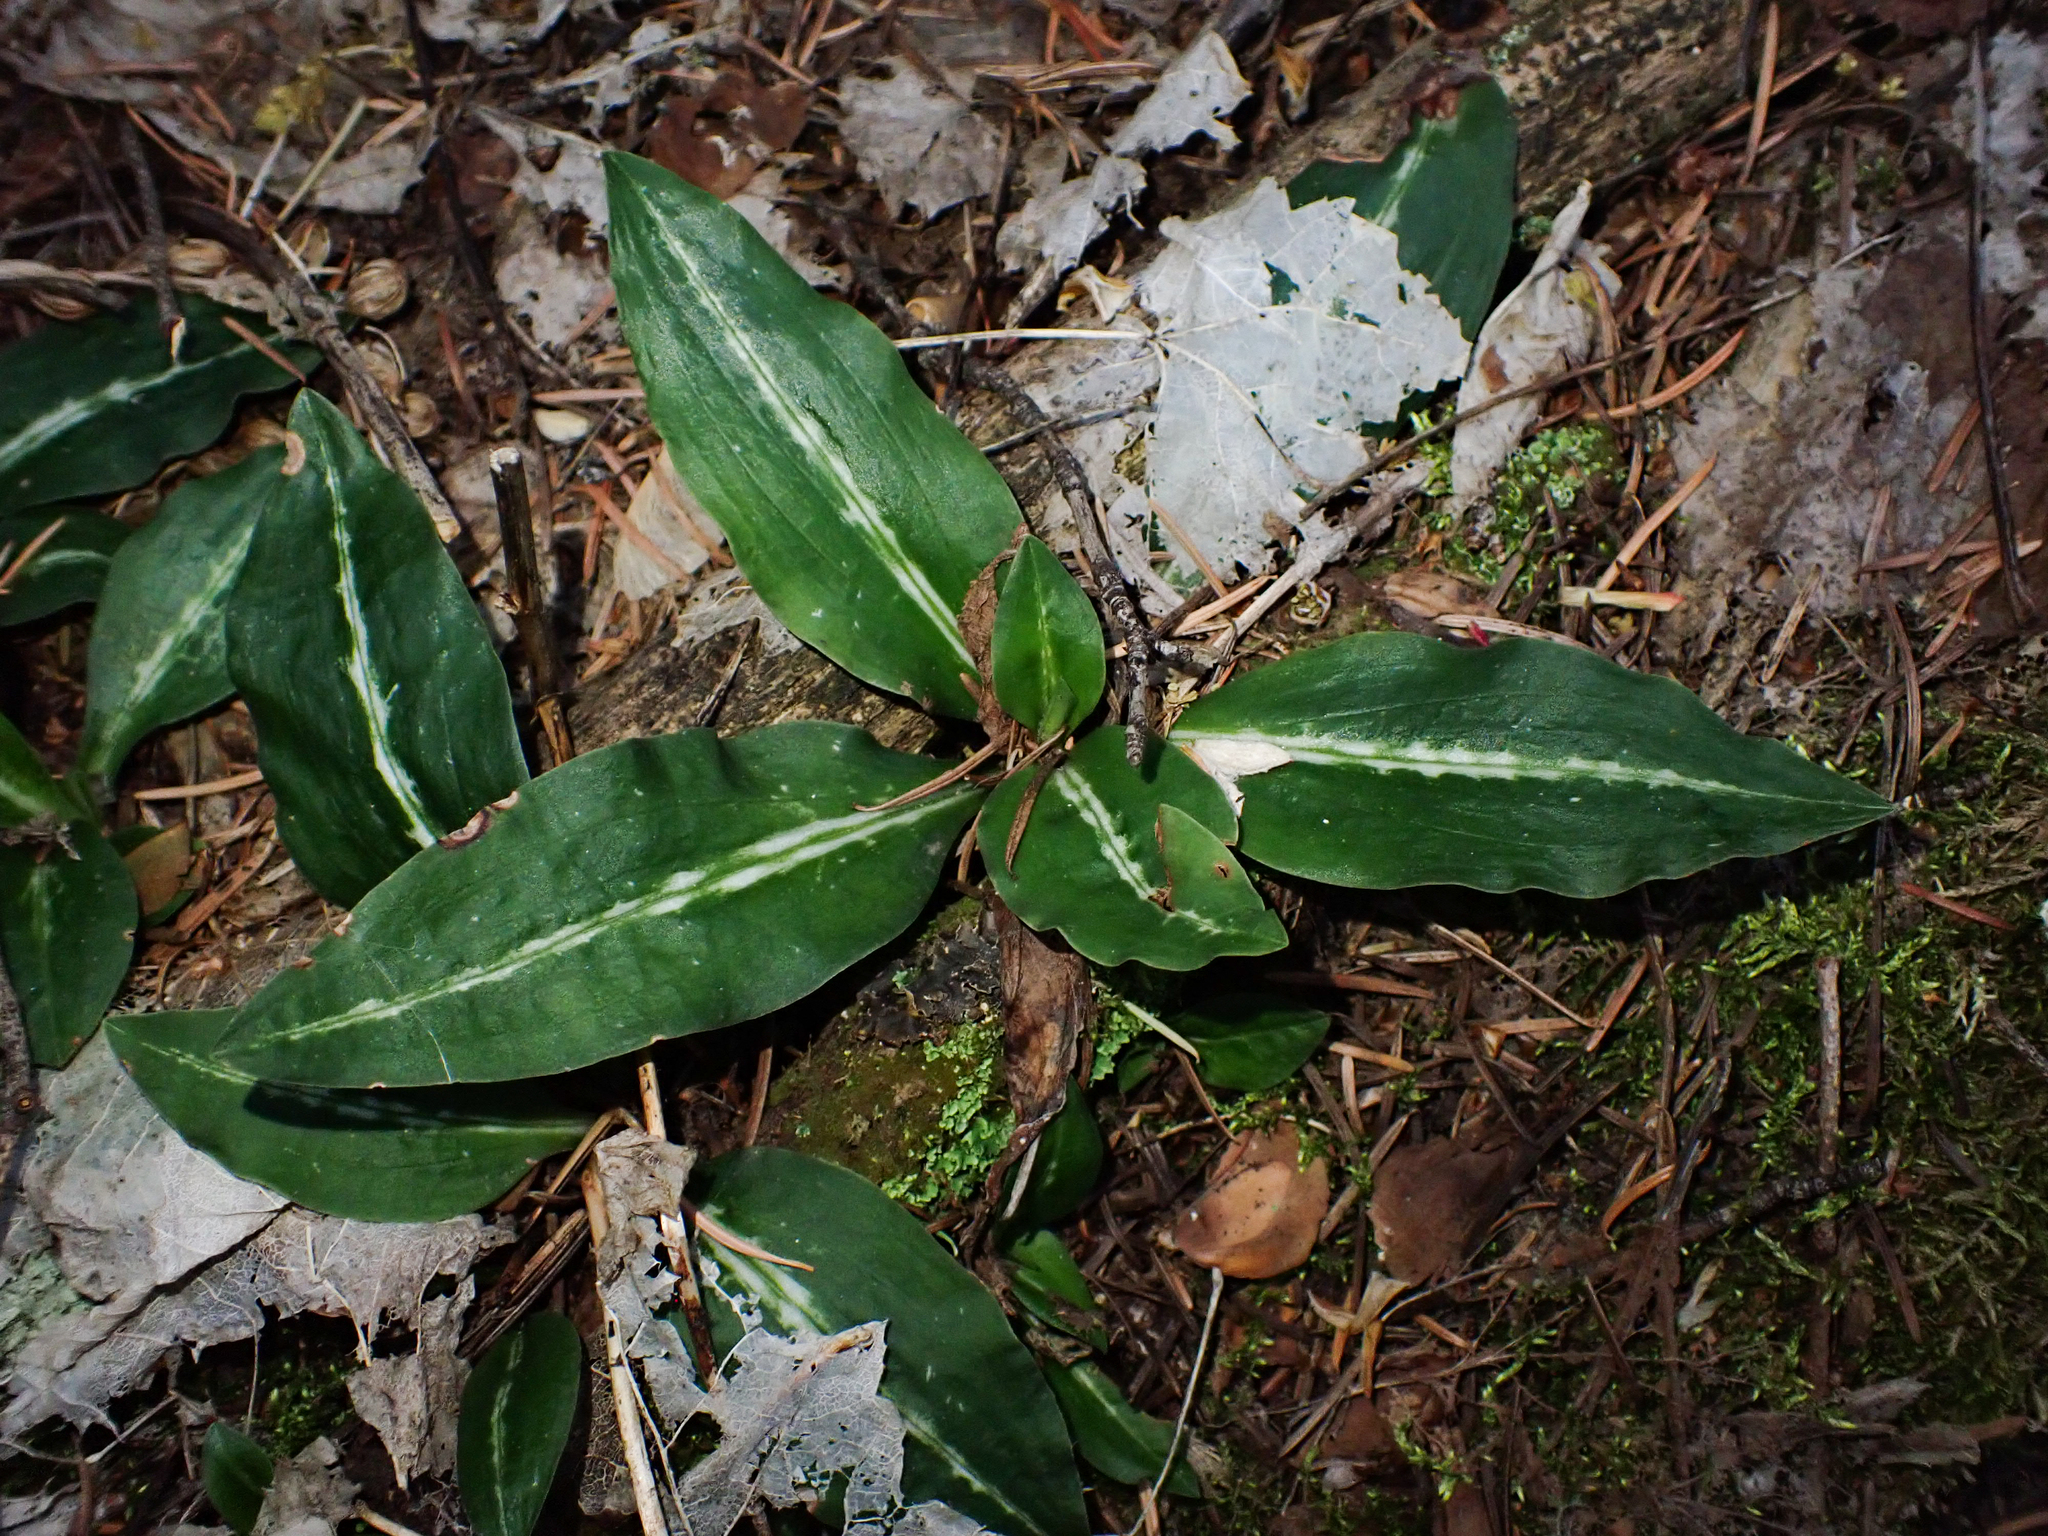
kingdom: Plantae
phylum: Tracheophyta
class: Liliopsida
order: Asparagales
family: Orchidaceae
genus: Goodyera
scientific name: Goodyera oblongifolia
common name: Giant rattlesnake-plantain
